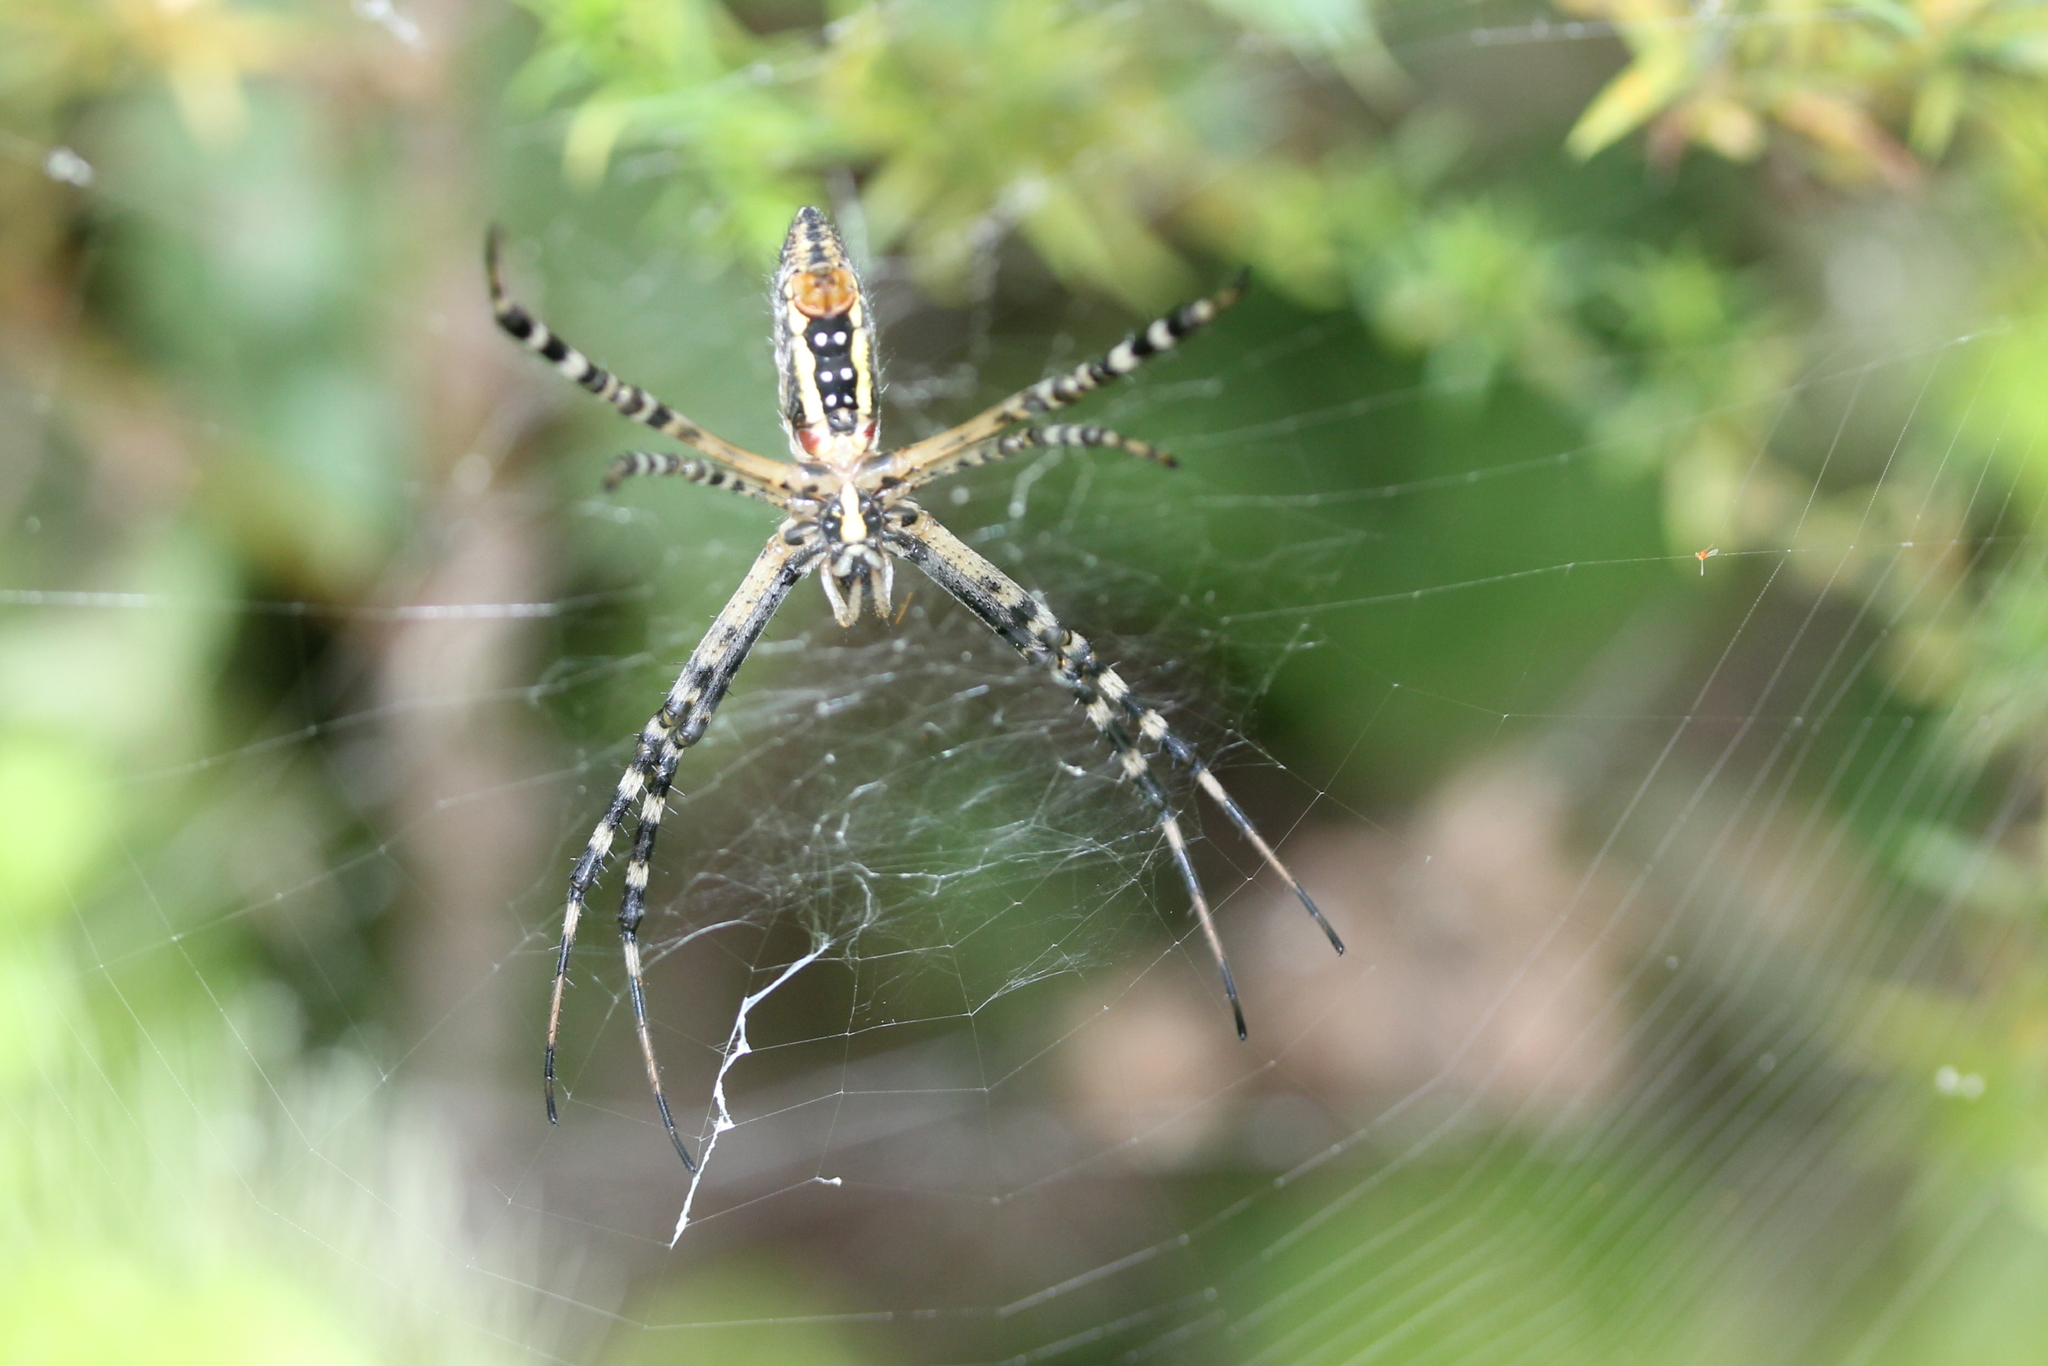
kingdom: Animalia
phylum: Arthropoda
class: Arachnida
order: Araneae
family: Araneidae
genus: Argiope
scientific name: Argiope trifasciata
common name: Banded garden spider
